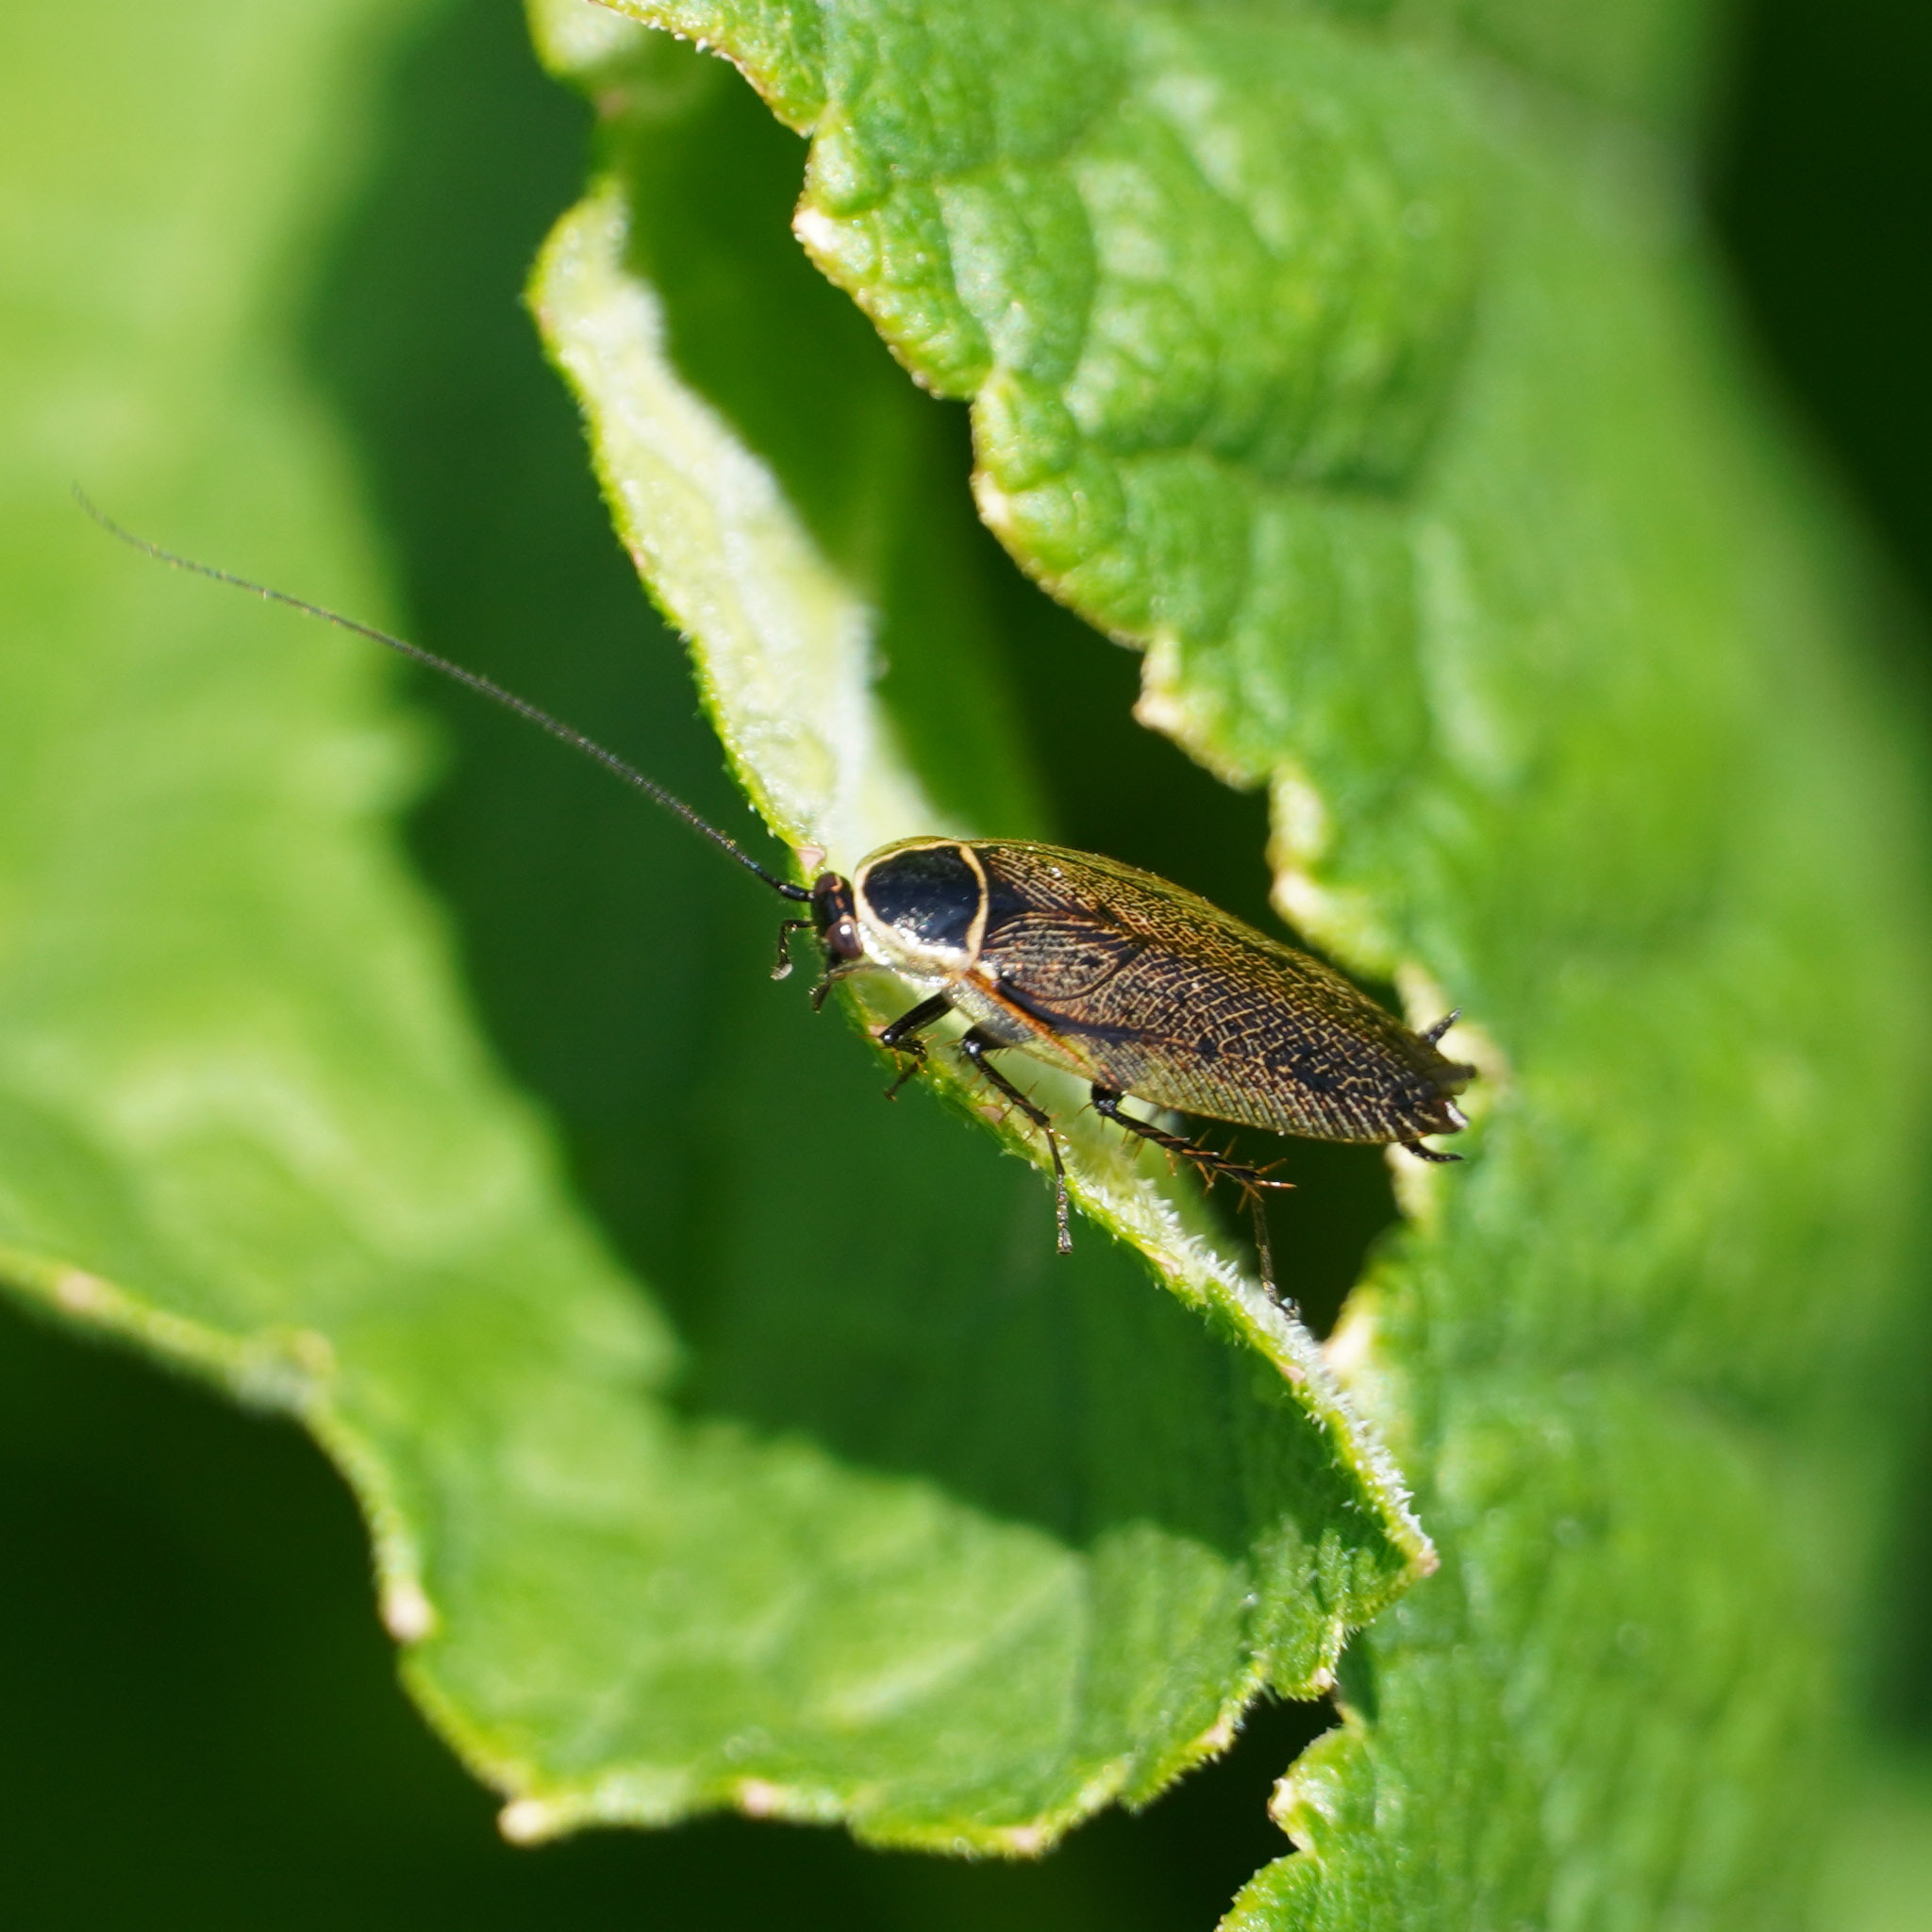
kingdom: Animalia
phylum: Arthropoda
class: Insecta
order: Blattodea
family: Ectobiidae
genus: Ectobius
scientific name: Ectobius sylvestris
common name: Forest cockroach
